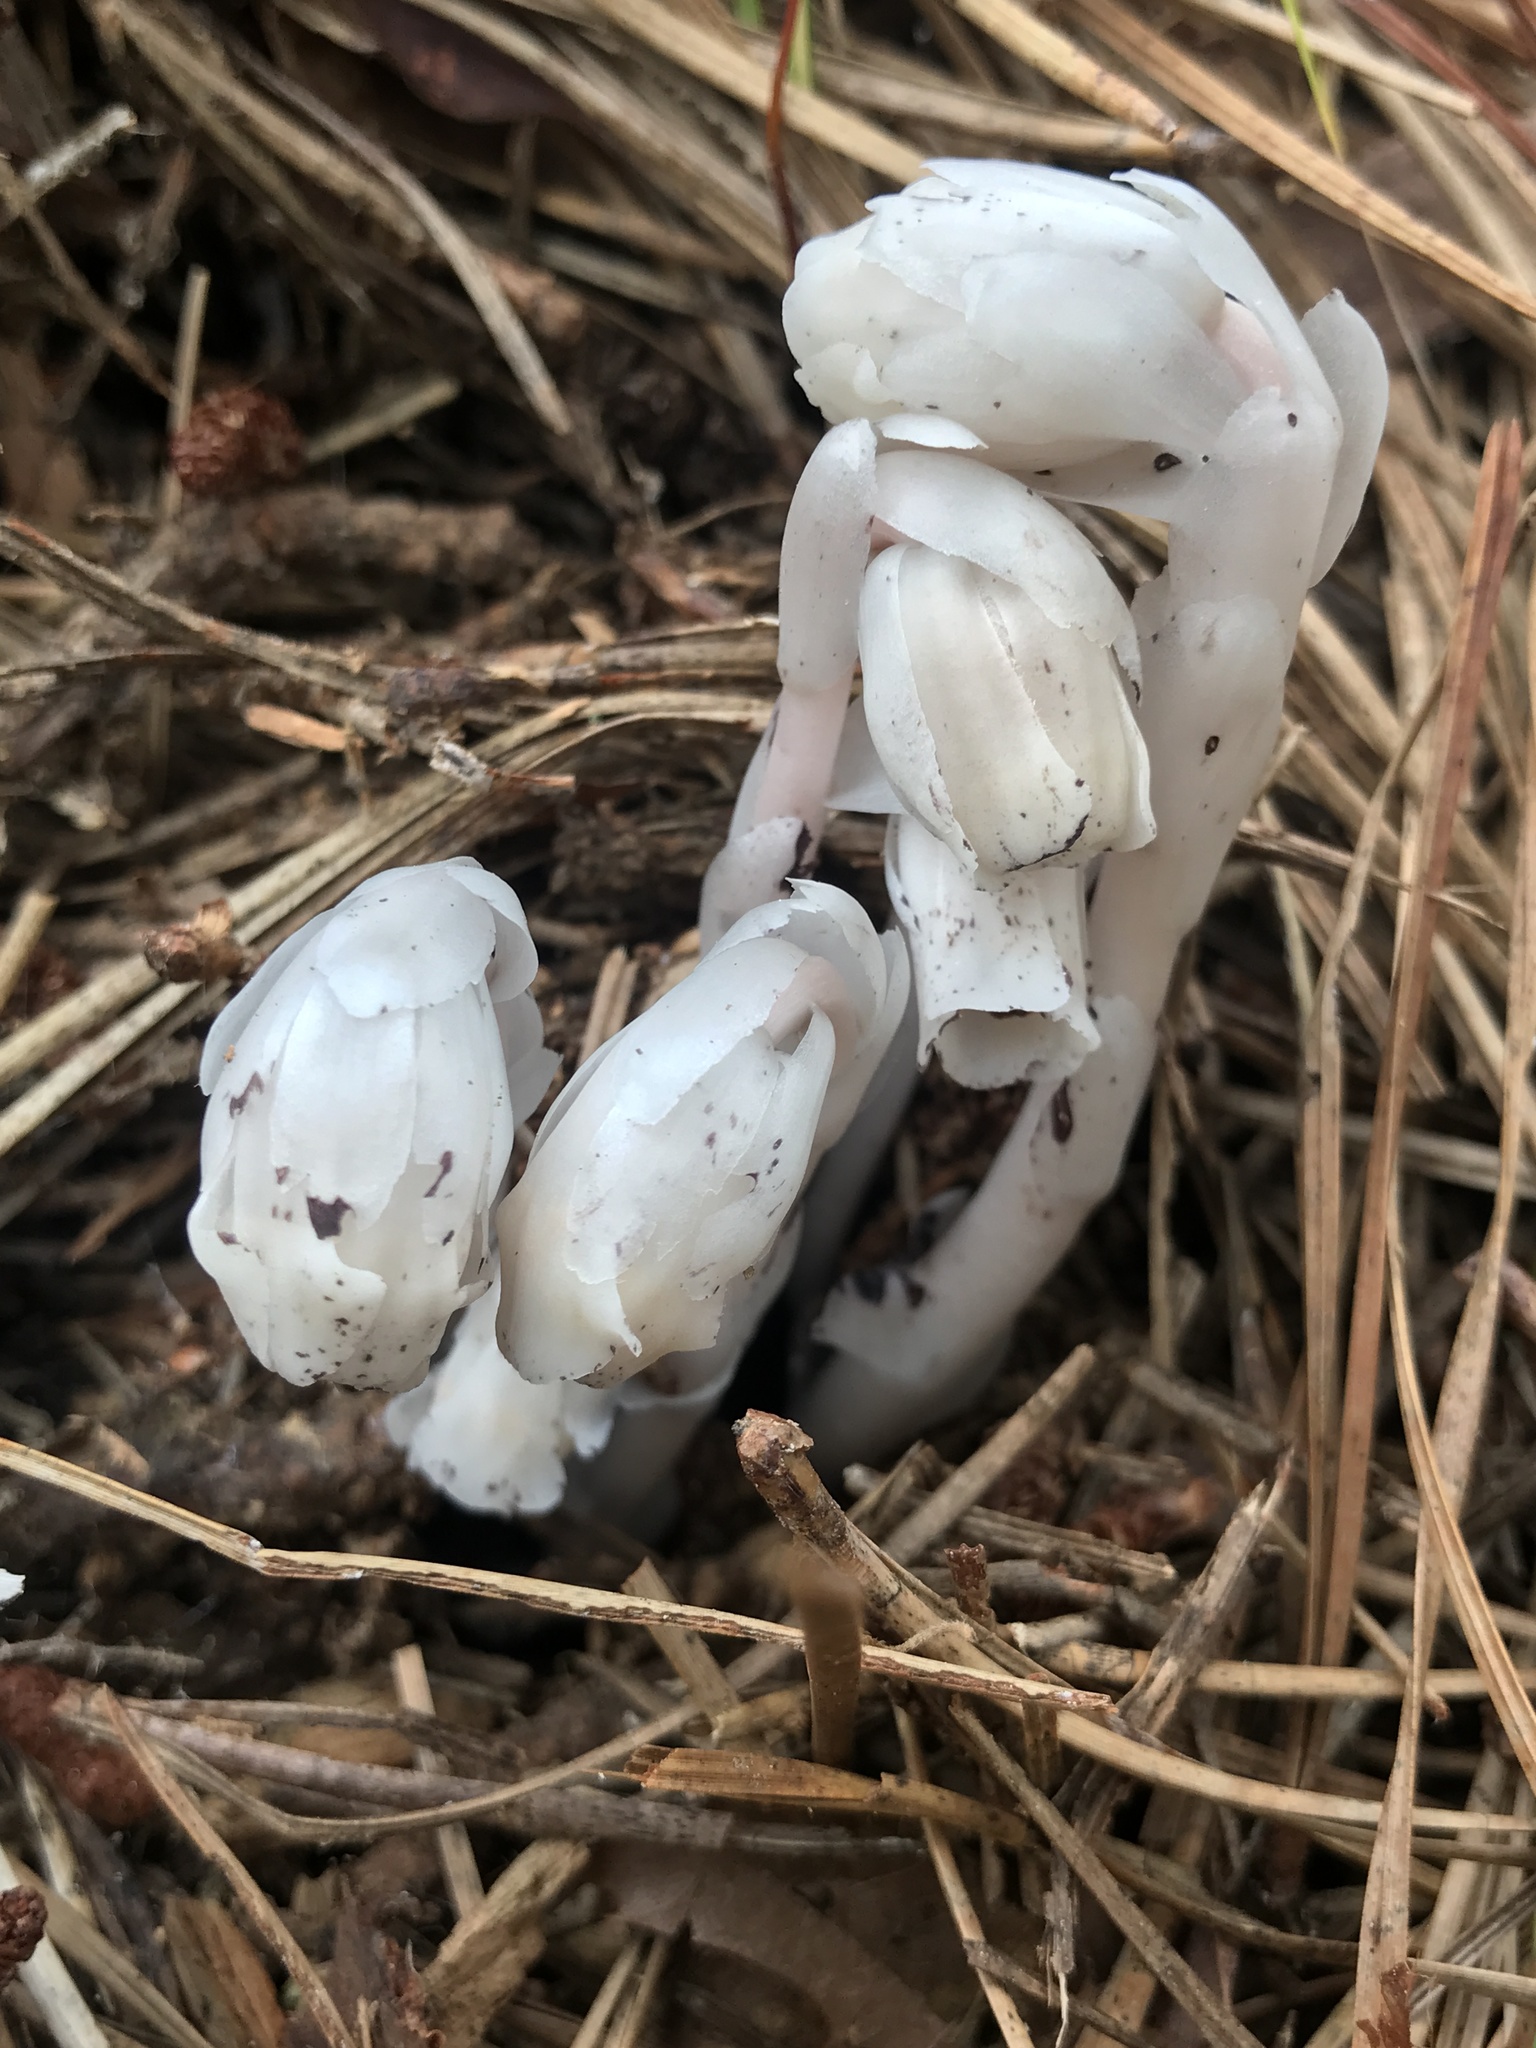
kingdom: Plantae
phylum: Tracheophyta
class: Magnoliopsida
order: Ericales
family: Ericaceae
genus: Monotropa
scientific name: Monotropa uniflora
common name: Convulsion root
